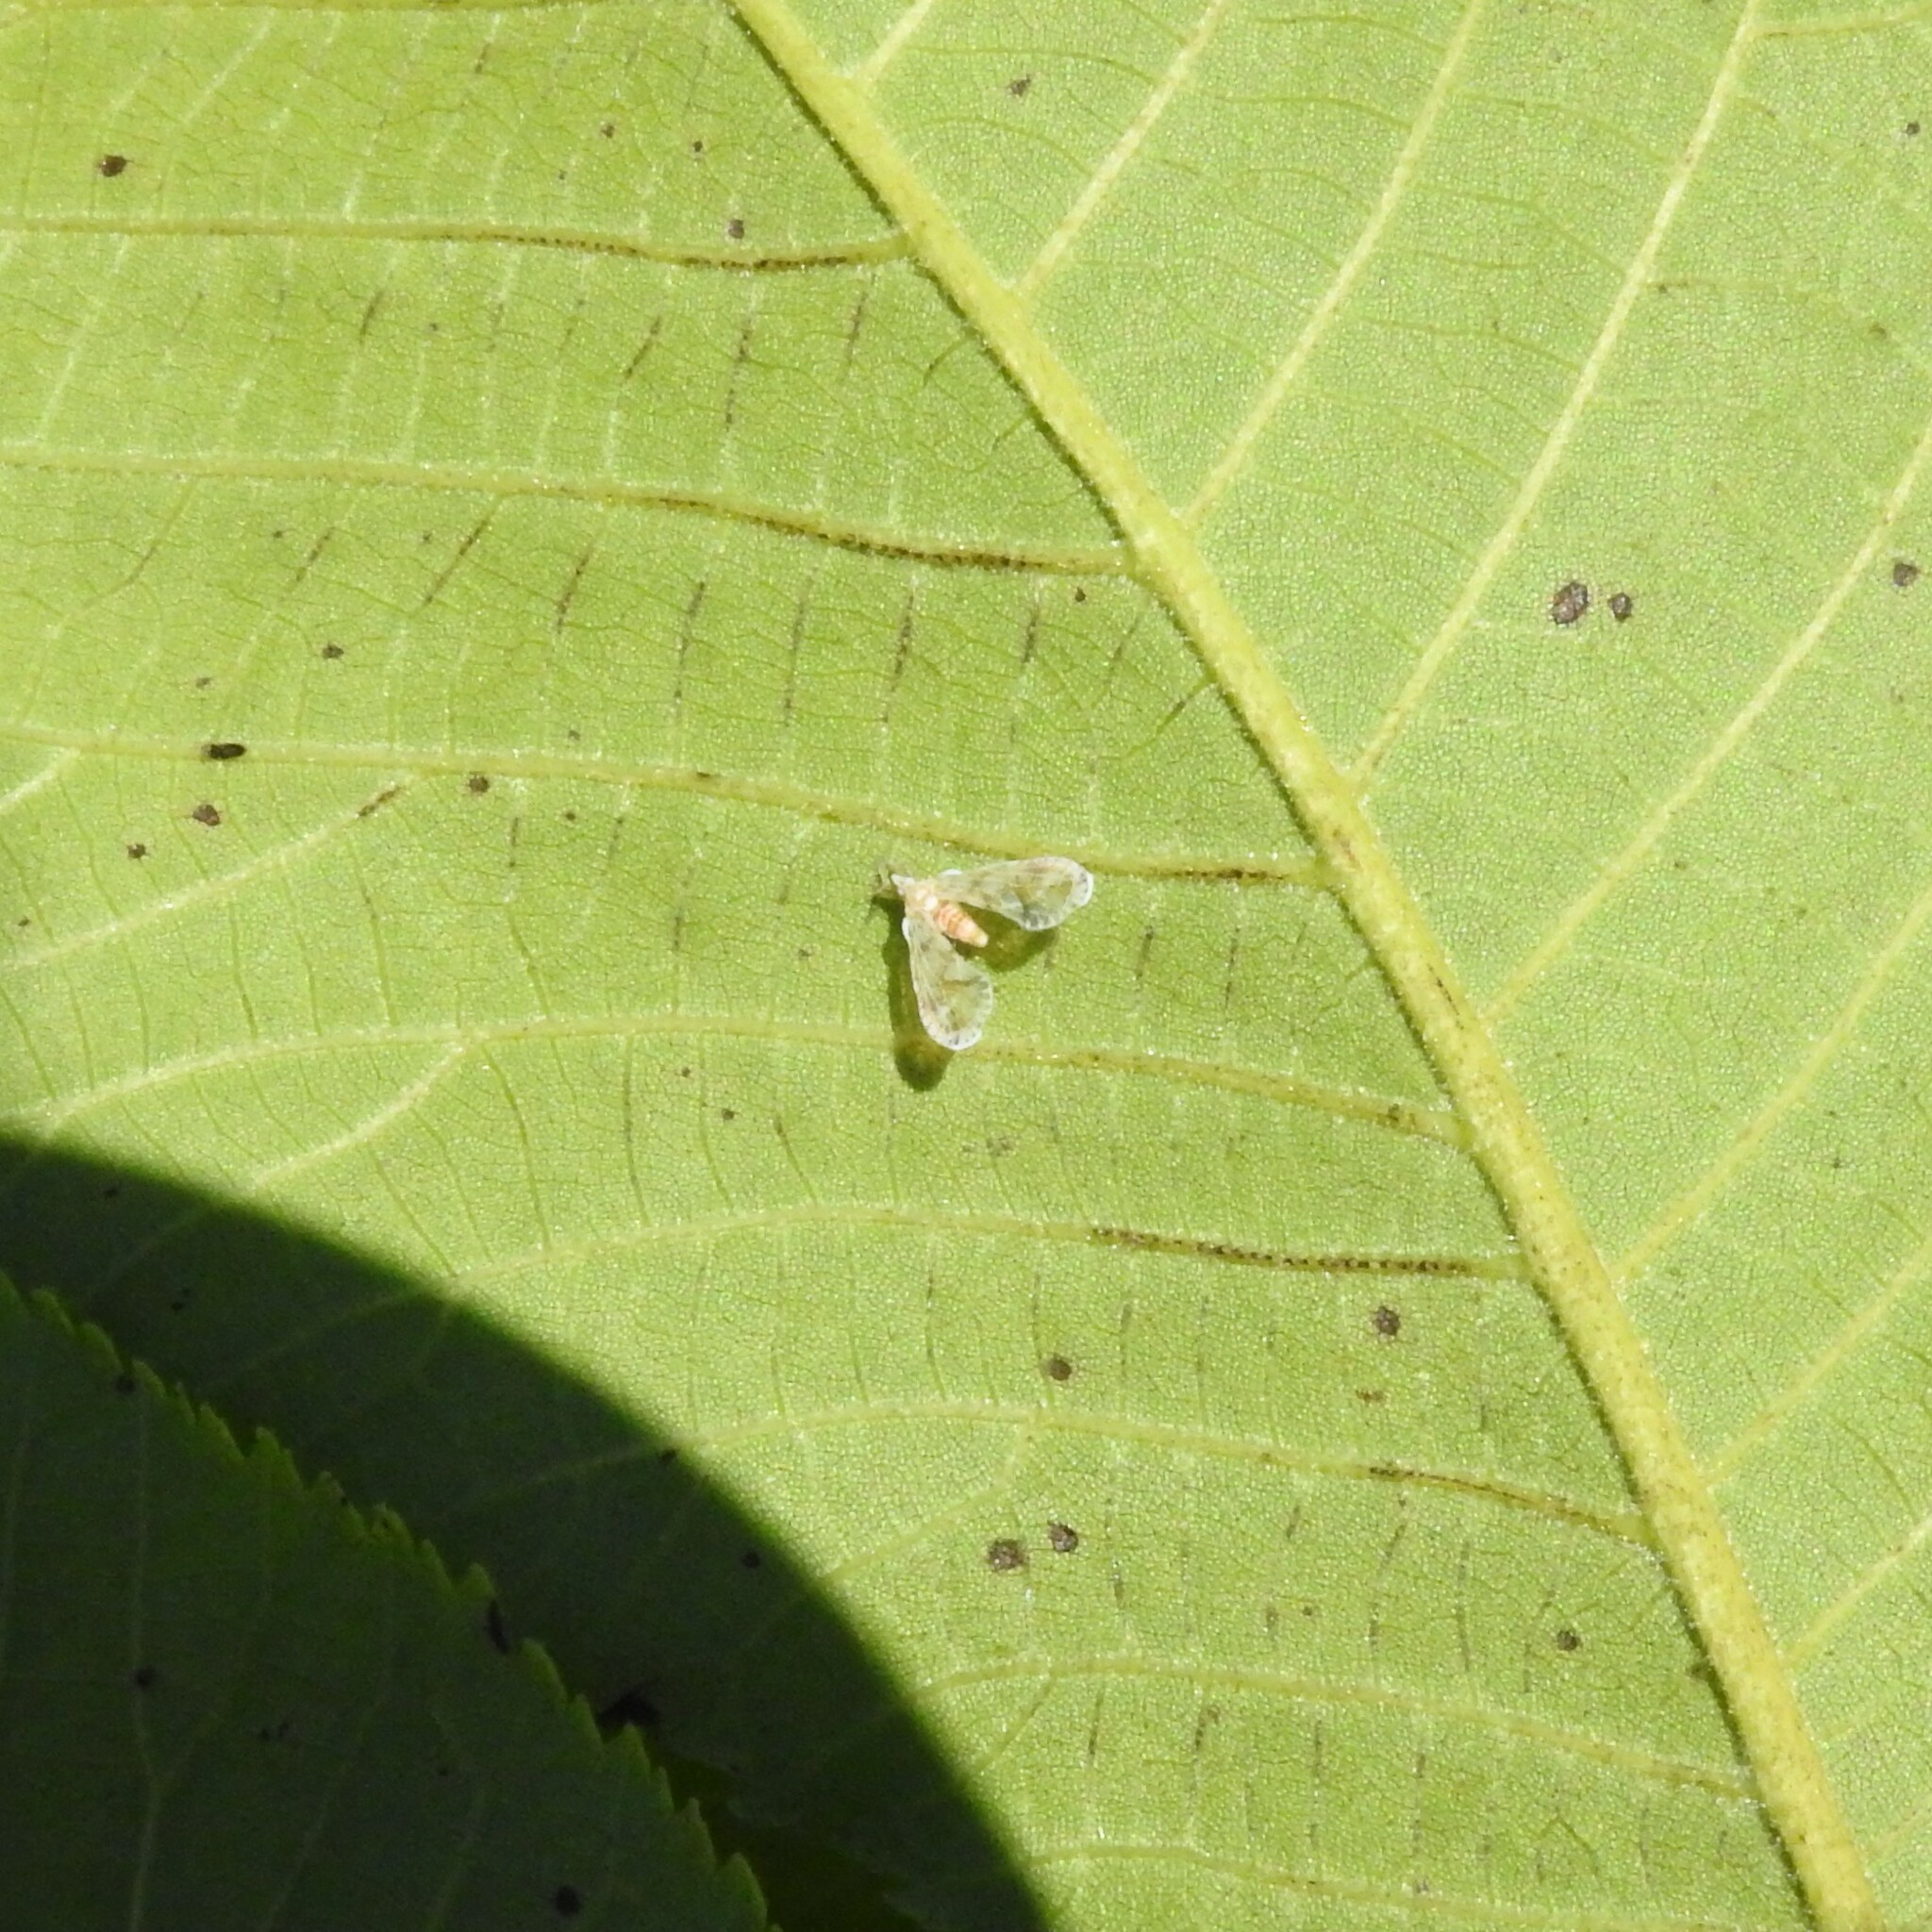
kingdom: Animalia
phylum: Arthropoda
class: Insecta
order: Hemiptera
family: Derbidae
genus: Anotia
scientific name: Anotia kirkaldyi
